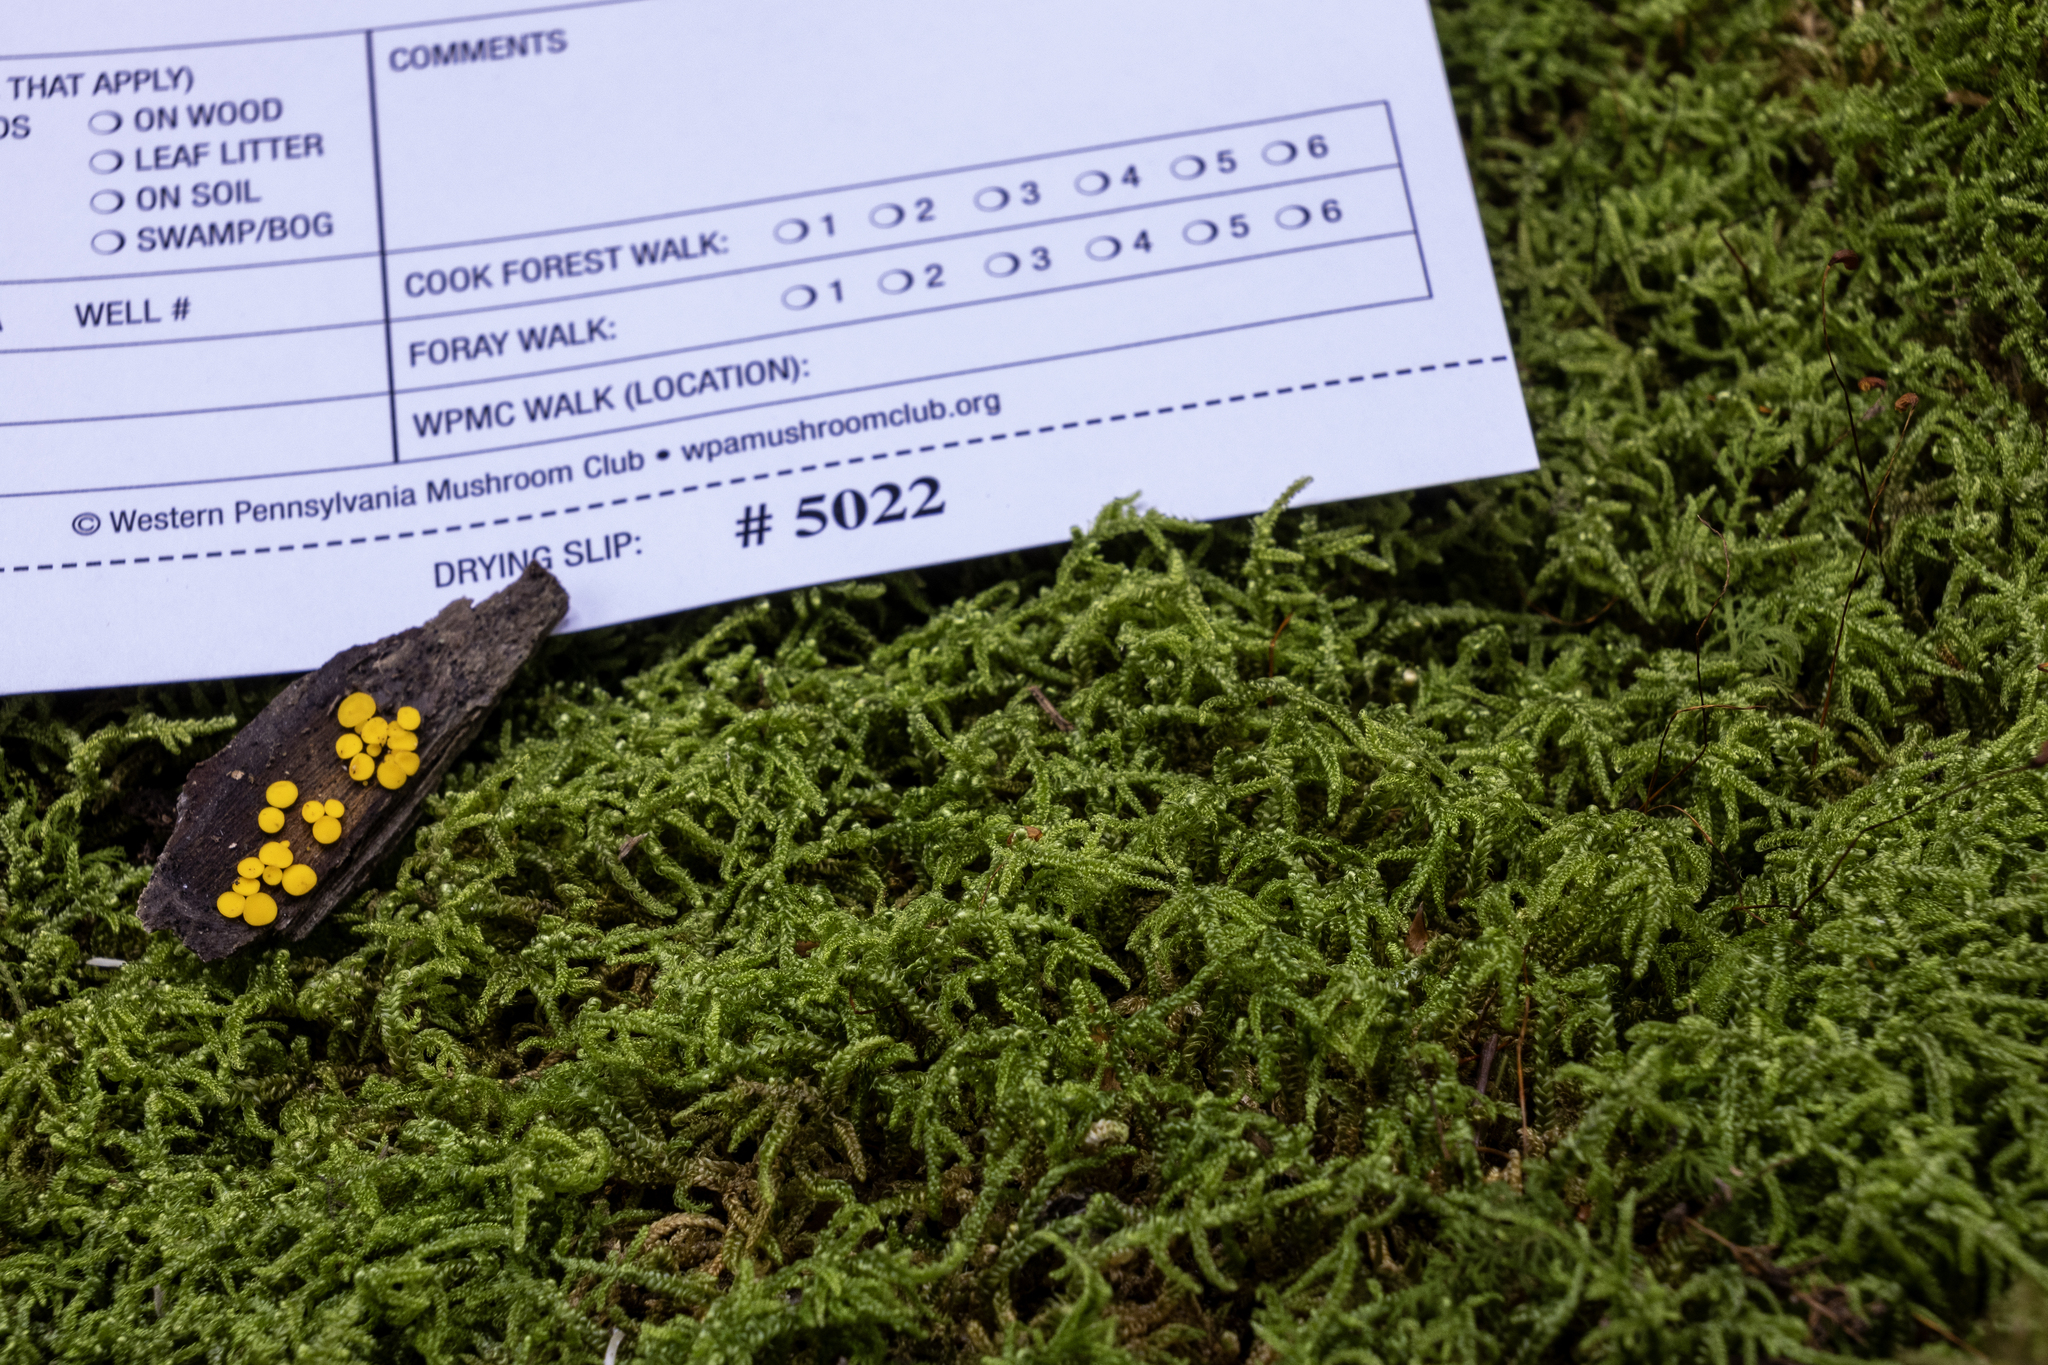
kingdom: Fungi
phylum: Ascomycota
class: Leotiomycetes
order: Helotiales
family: Pezizellaceae
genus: Calycina
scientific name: Calycina citrina
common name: Yellow fairy cups
